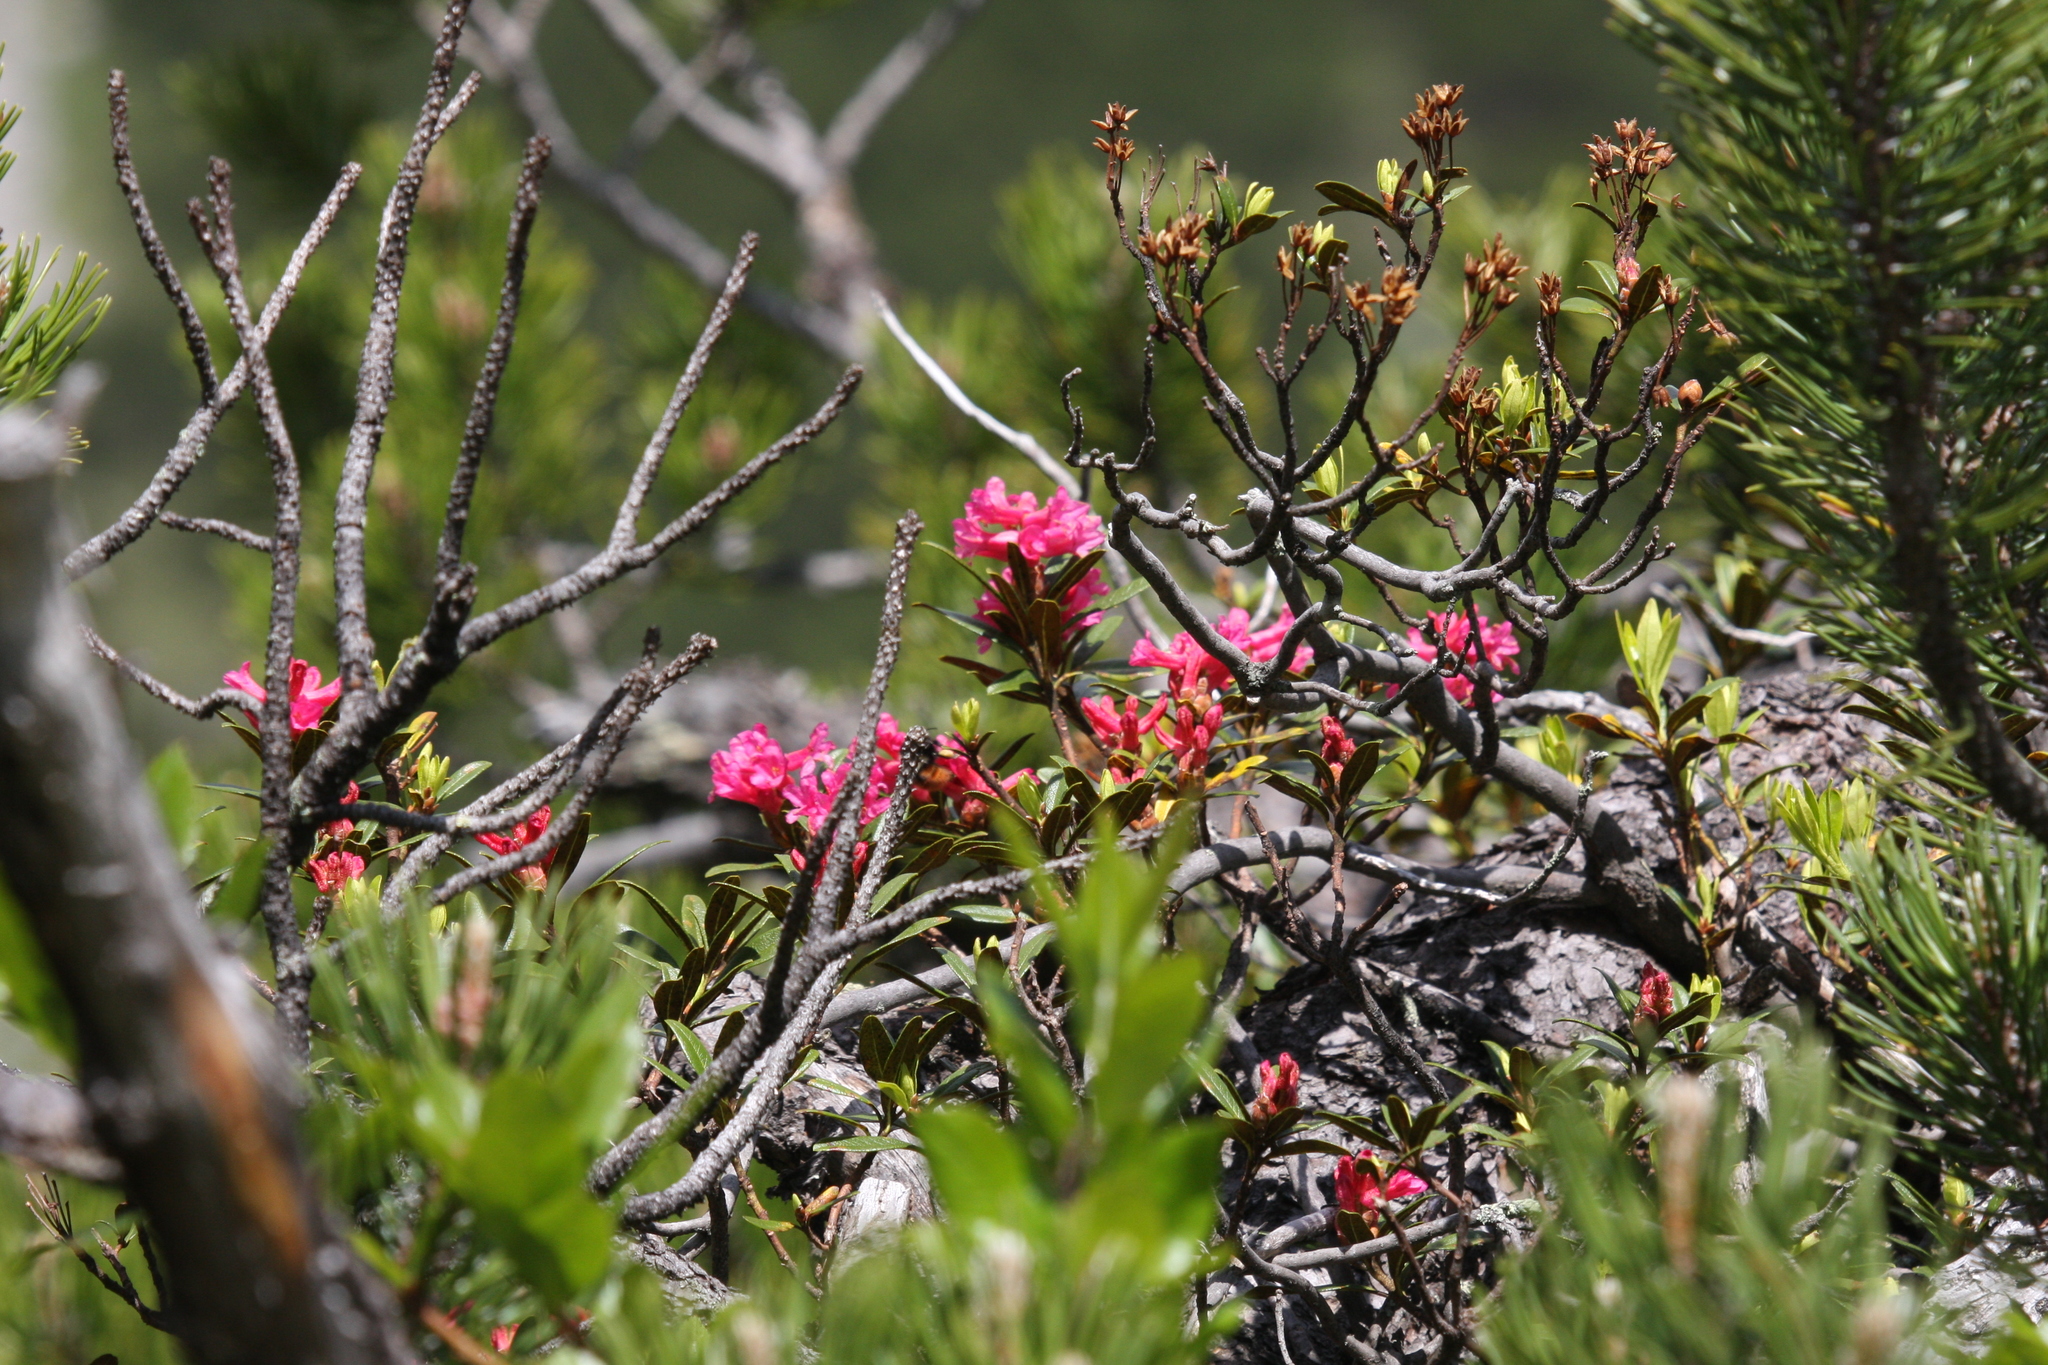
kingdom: Plantae
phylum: Tracheophyta
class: Magnoliopsida
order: Ericales
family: Ericaceae
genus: Rhododendron
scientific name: Rhododendron ferrugineum
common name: Alpenrose
